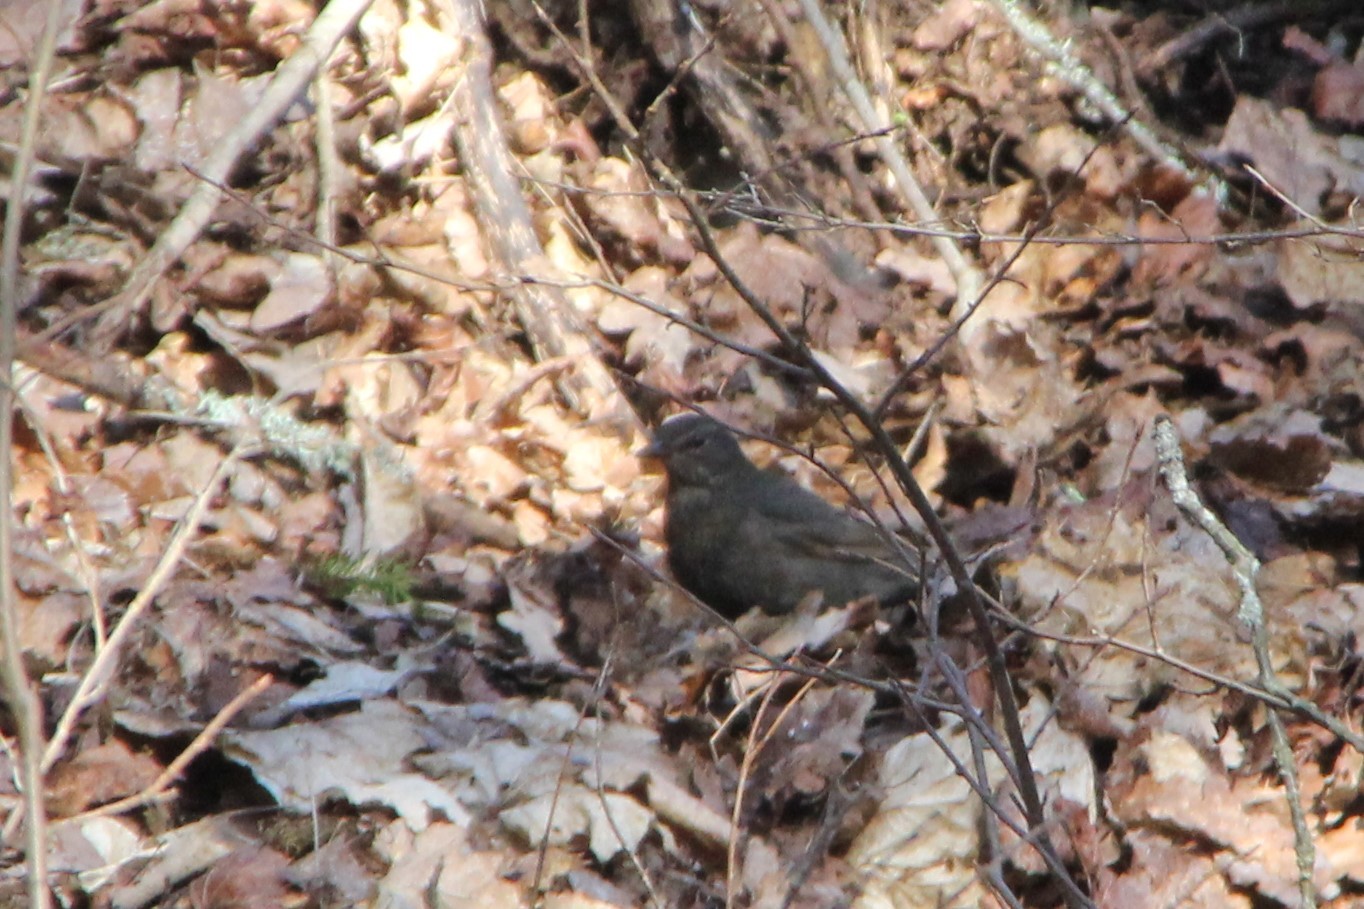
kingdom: Animalia
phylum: Chordata
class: Aves
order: Passeriformes
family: Turdidae
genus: Turdus
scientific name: Turdus merula
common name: Common blackbird
